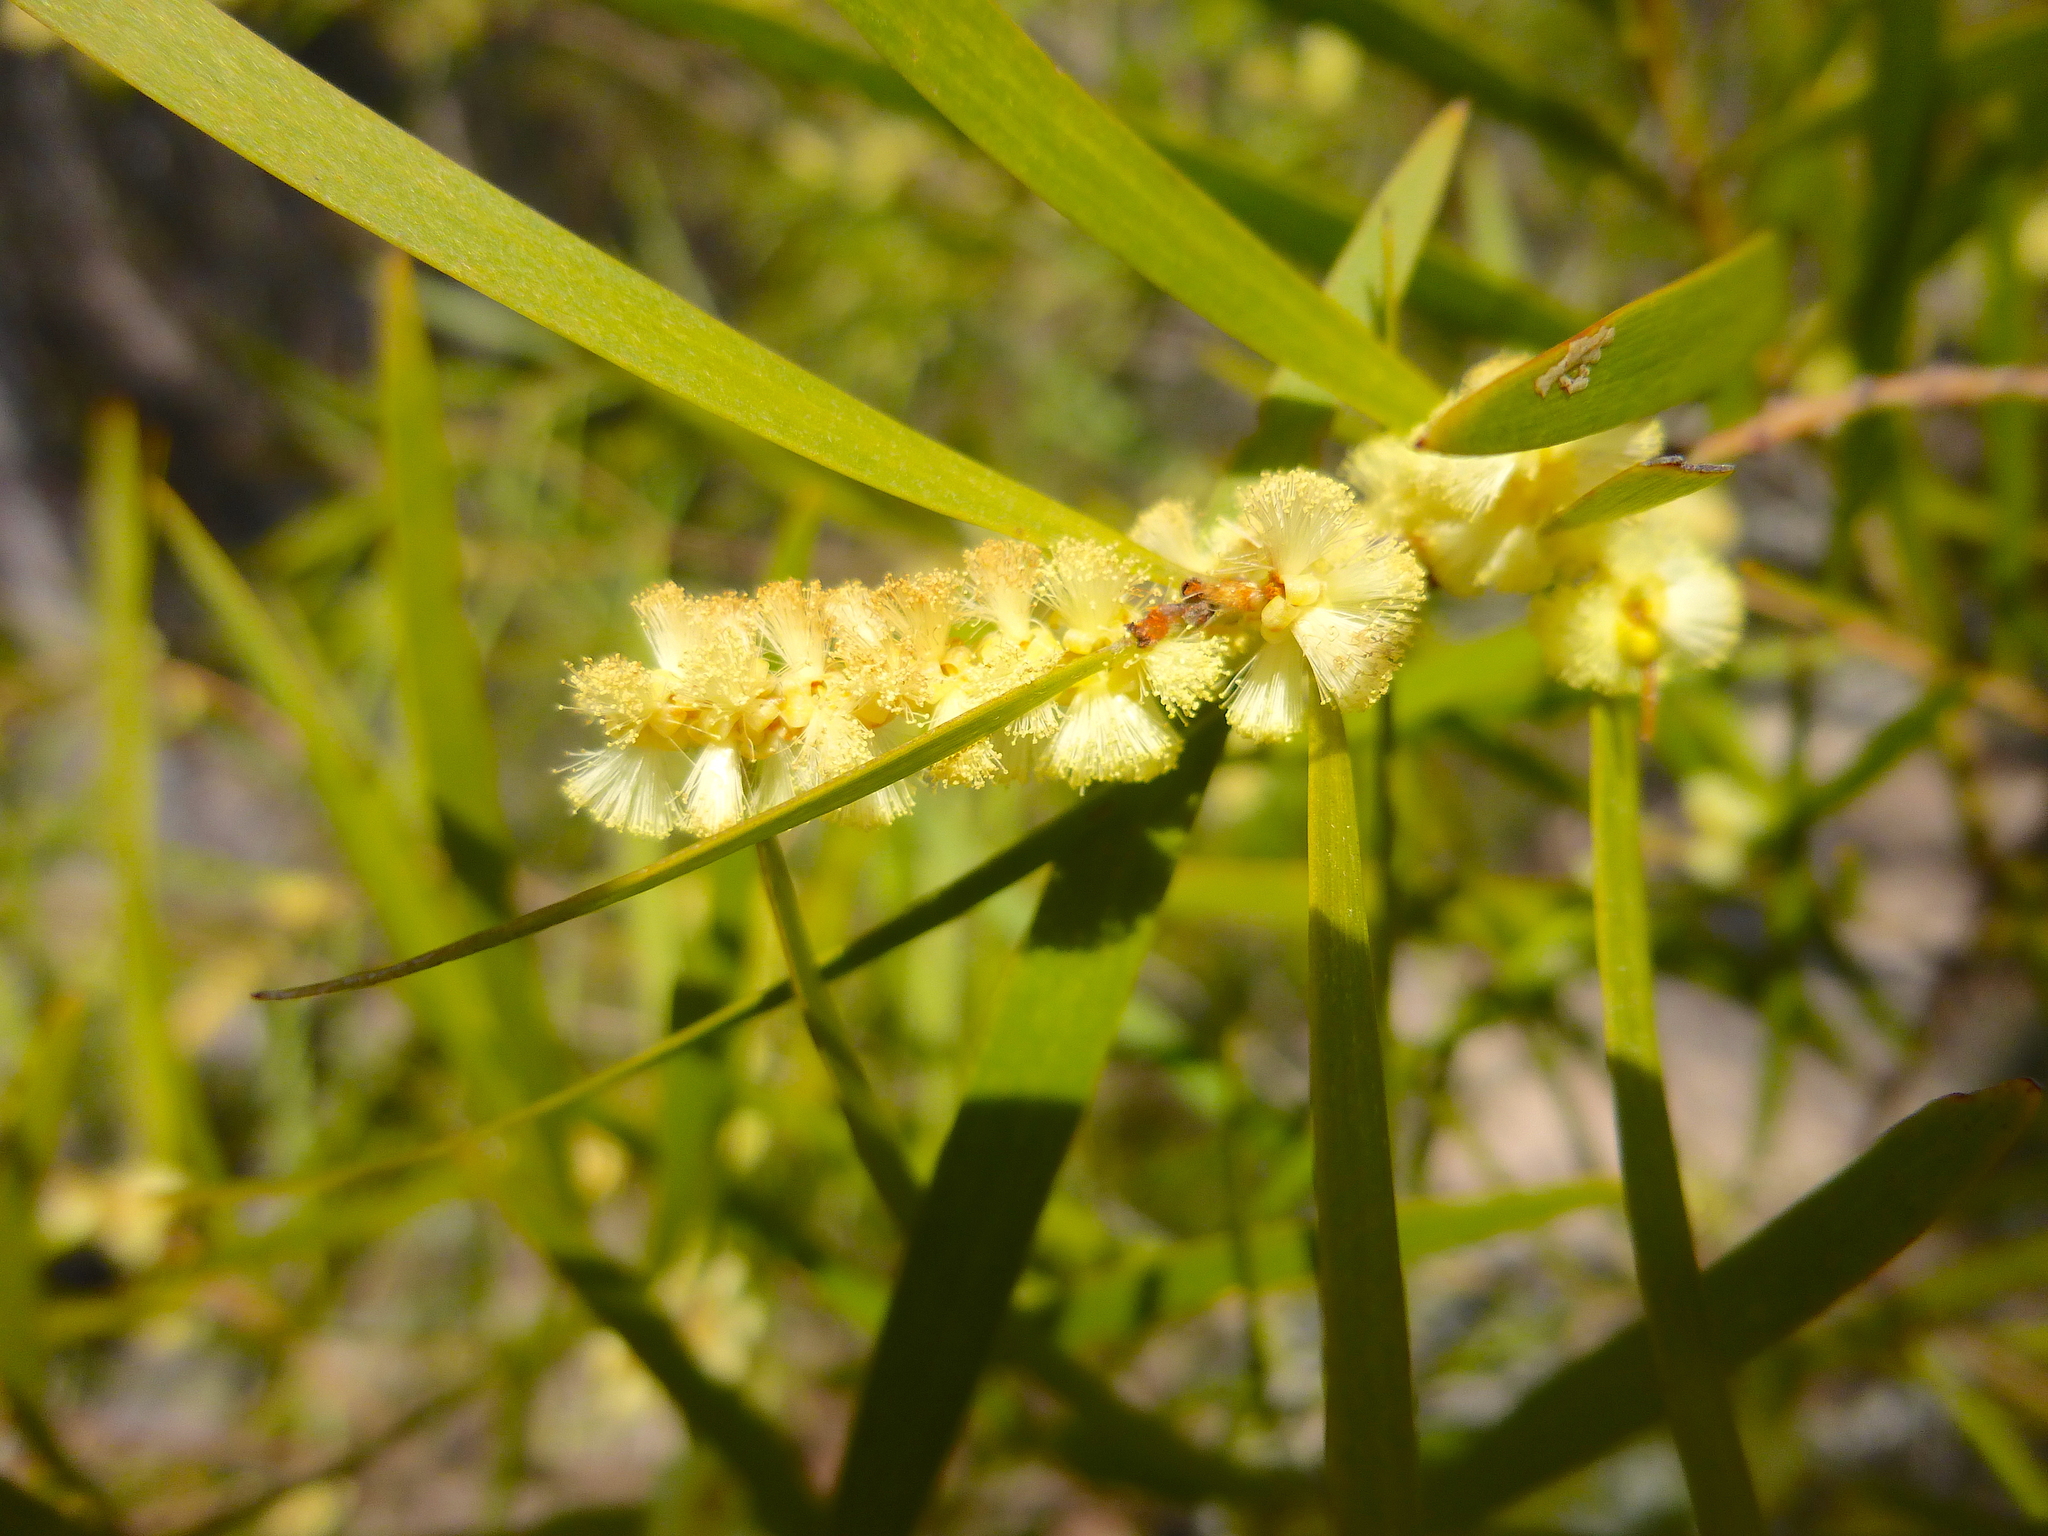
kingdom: Plantae
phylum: Tracheophyta
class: Magnoliopsida
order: Fabales
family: Fabaceae
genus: Acacia
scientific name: Acacia mucronata
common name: Variable sallow wattle
